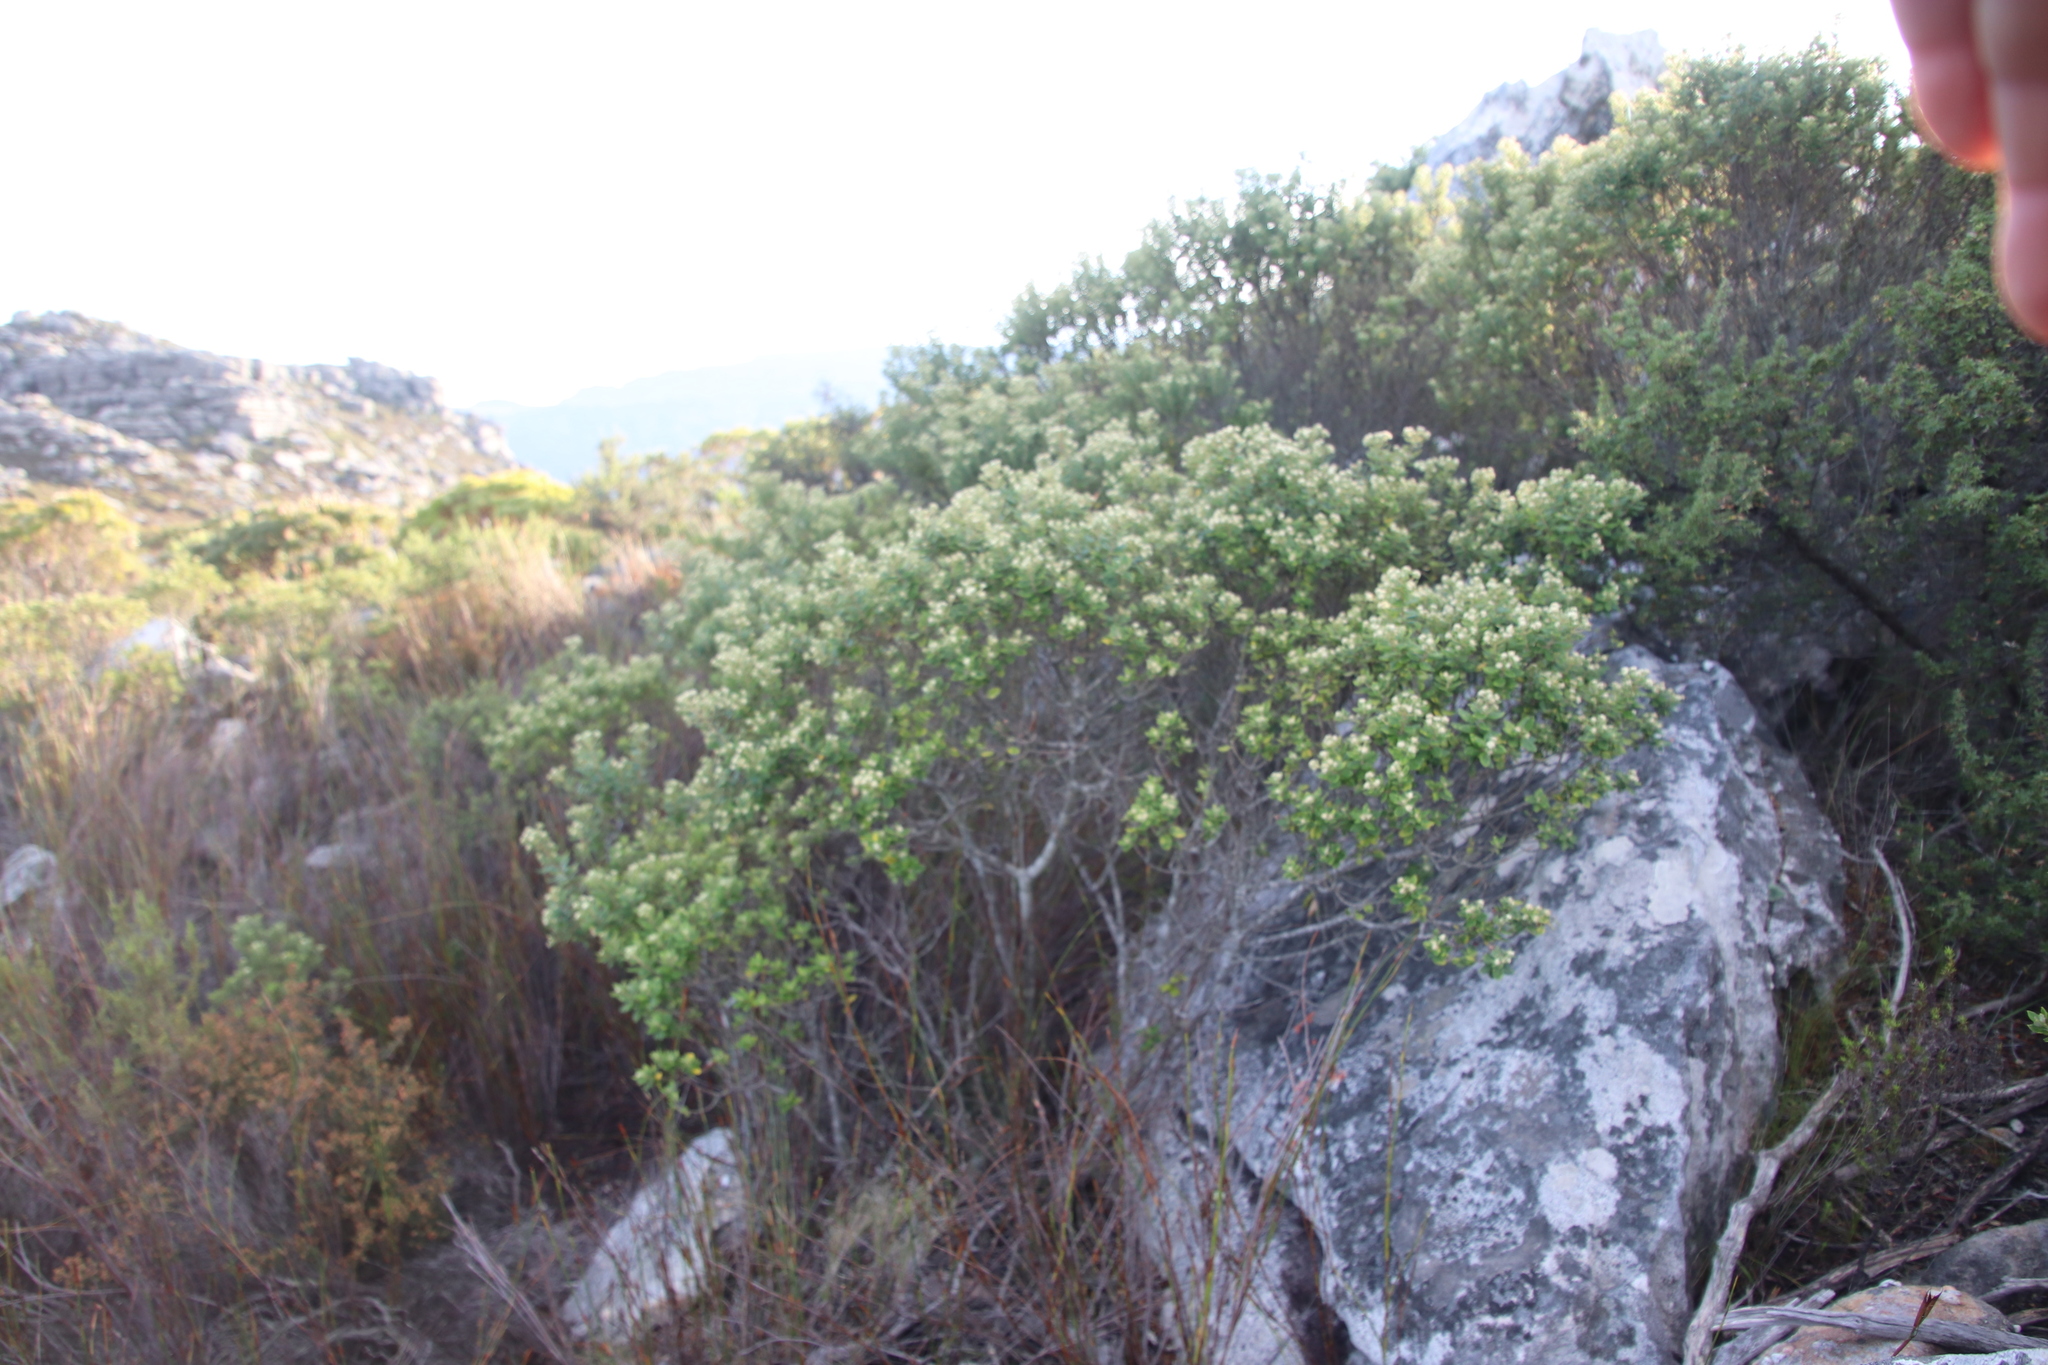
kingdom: Plantae
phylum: Tracheophyta
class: Magnoliopsida
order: Rosales
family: Rhamnaceae
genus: Phylica
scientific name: Phylica buxifolia
